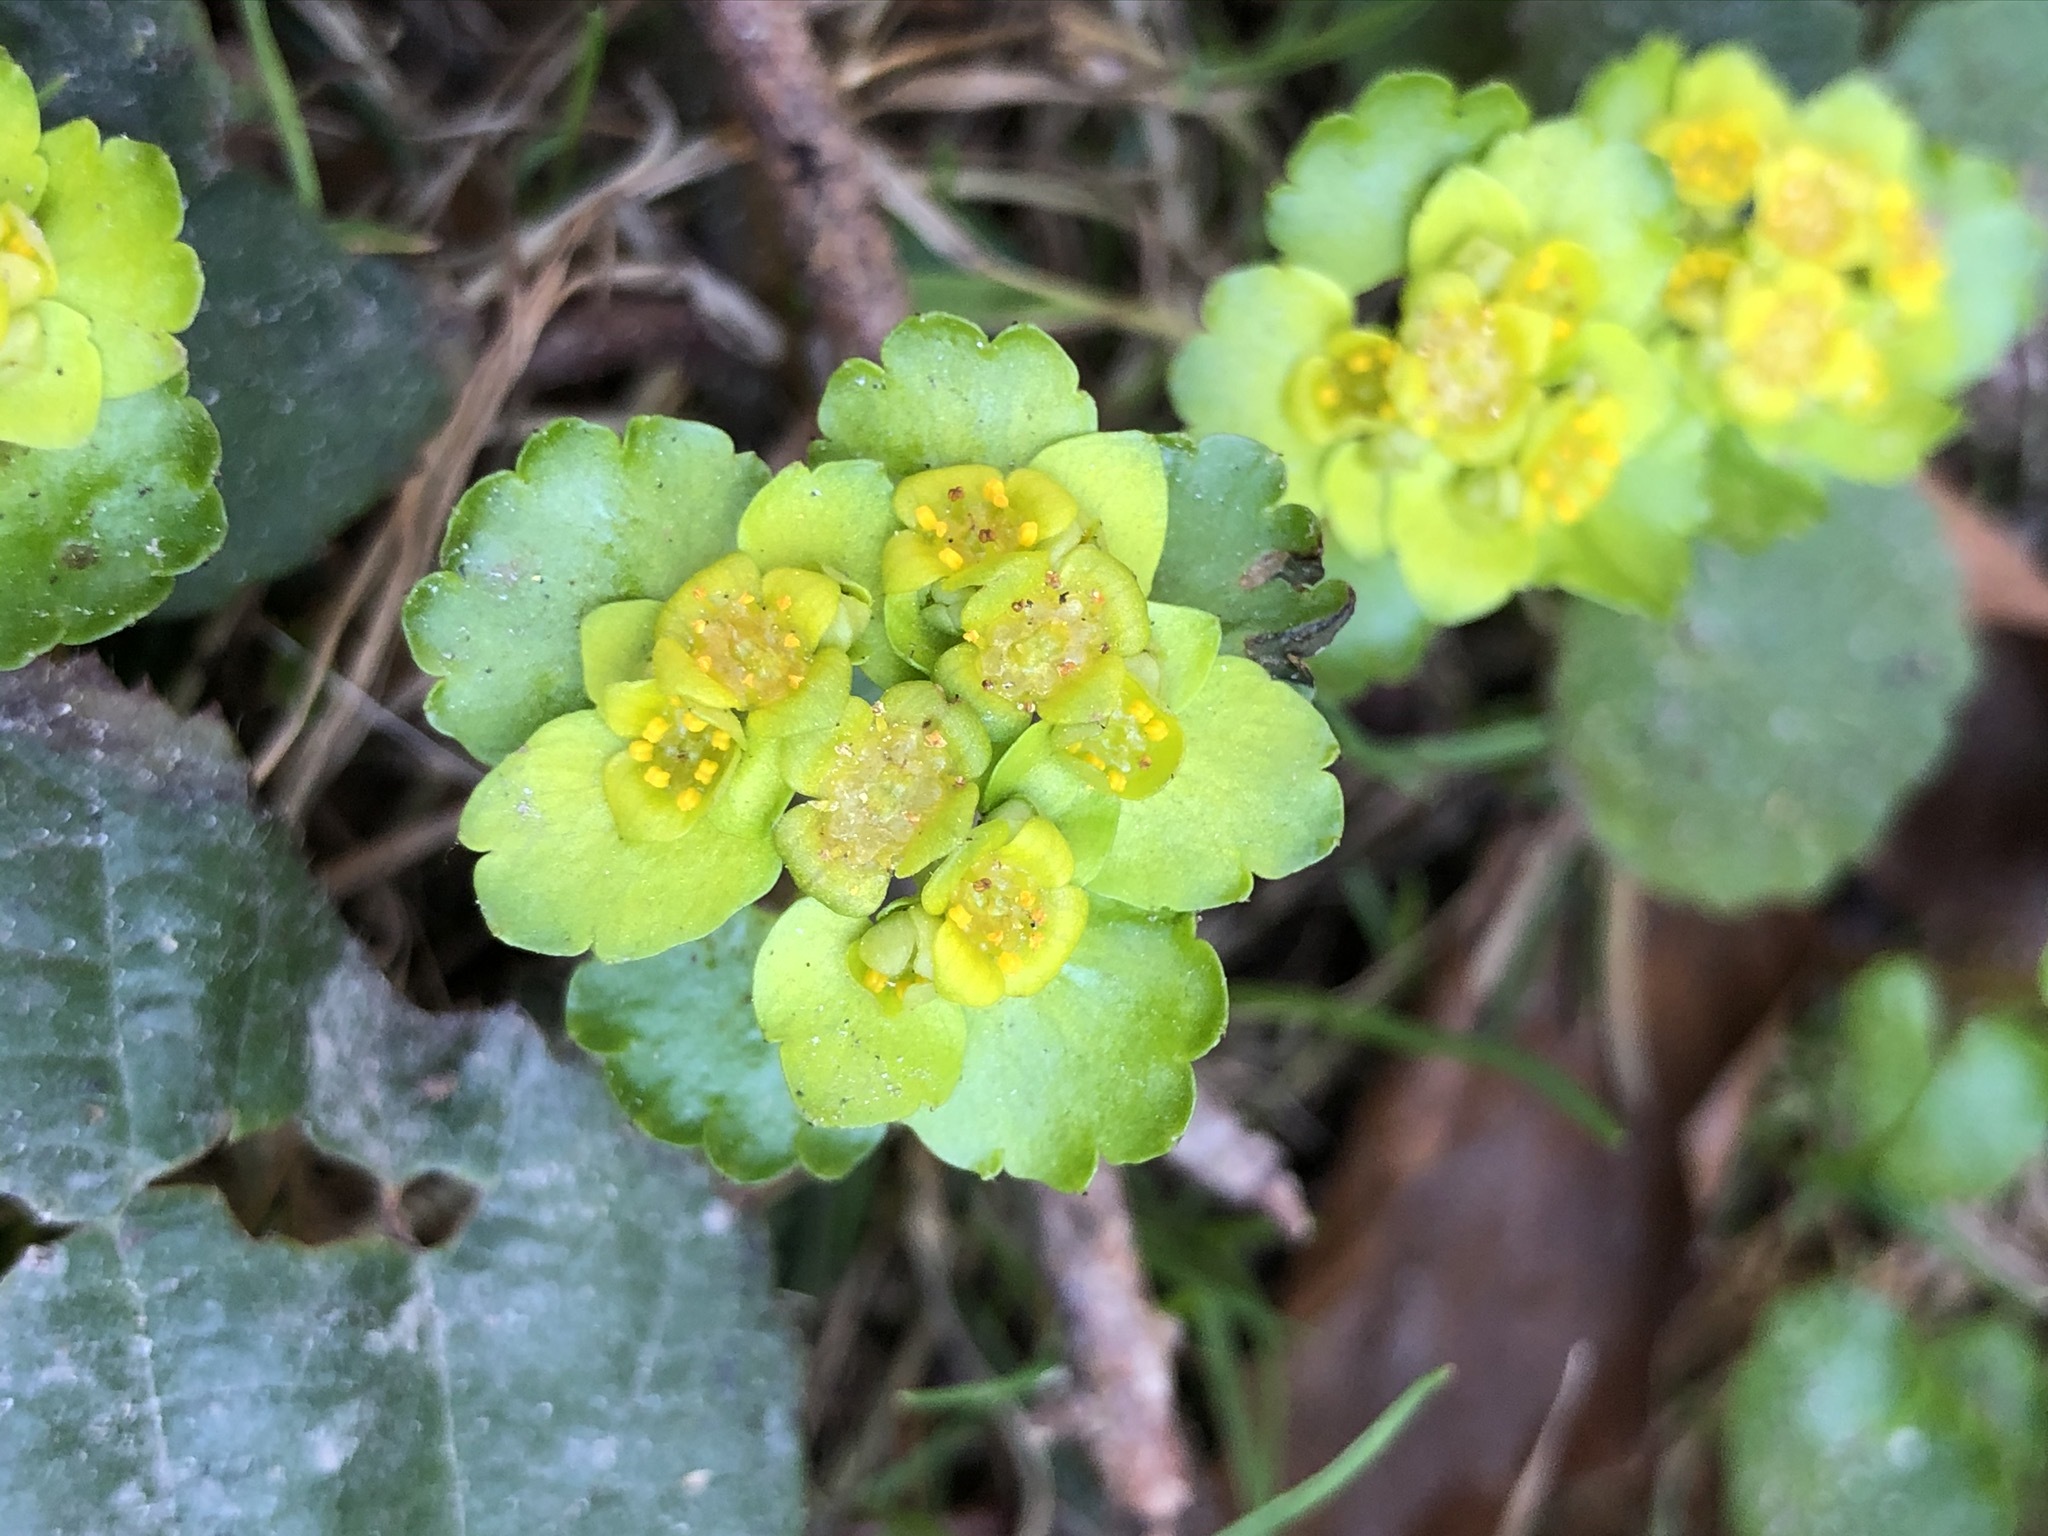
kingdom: Plantae
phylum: Tracheophyta
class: Magnoliopsida
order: Saxifragales
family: Saxifragaceae
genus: Chrysosplenium
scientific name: Chrysosplenium alternifolium
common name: Alternate-leaved golden-saxifrage
